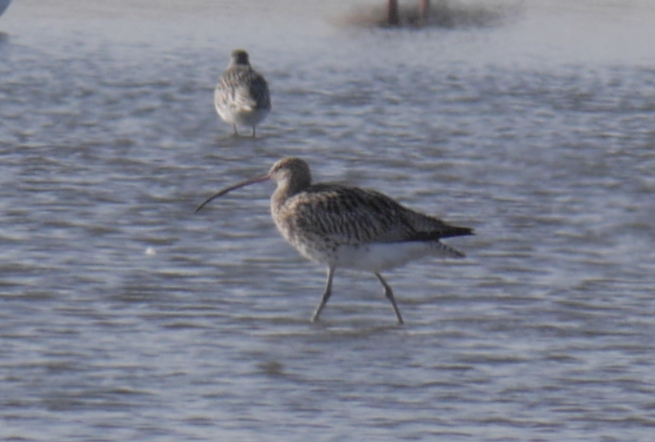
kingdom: Animalia
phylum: Chordata
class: Aves
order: Charadriiformes
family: Scolopacidae
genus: Numenius
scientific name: Numenius arquata
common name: Eurasian curlew
